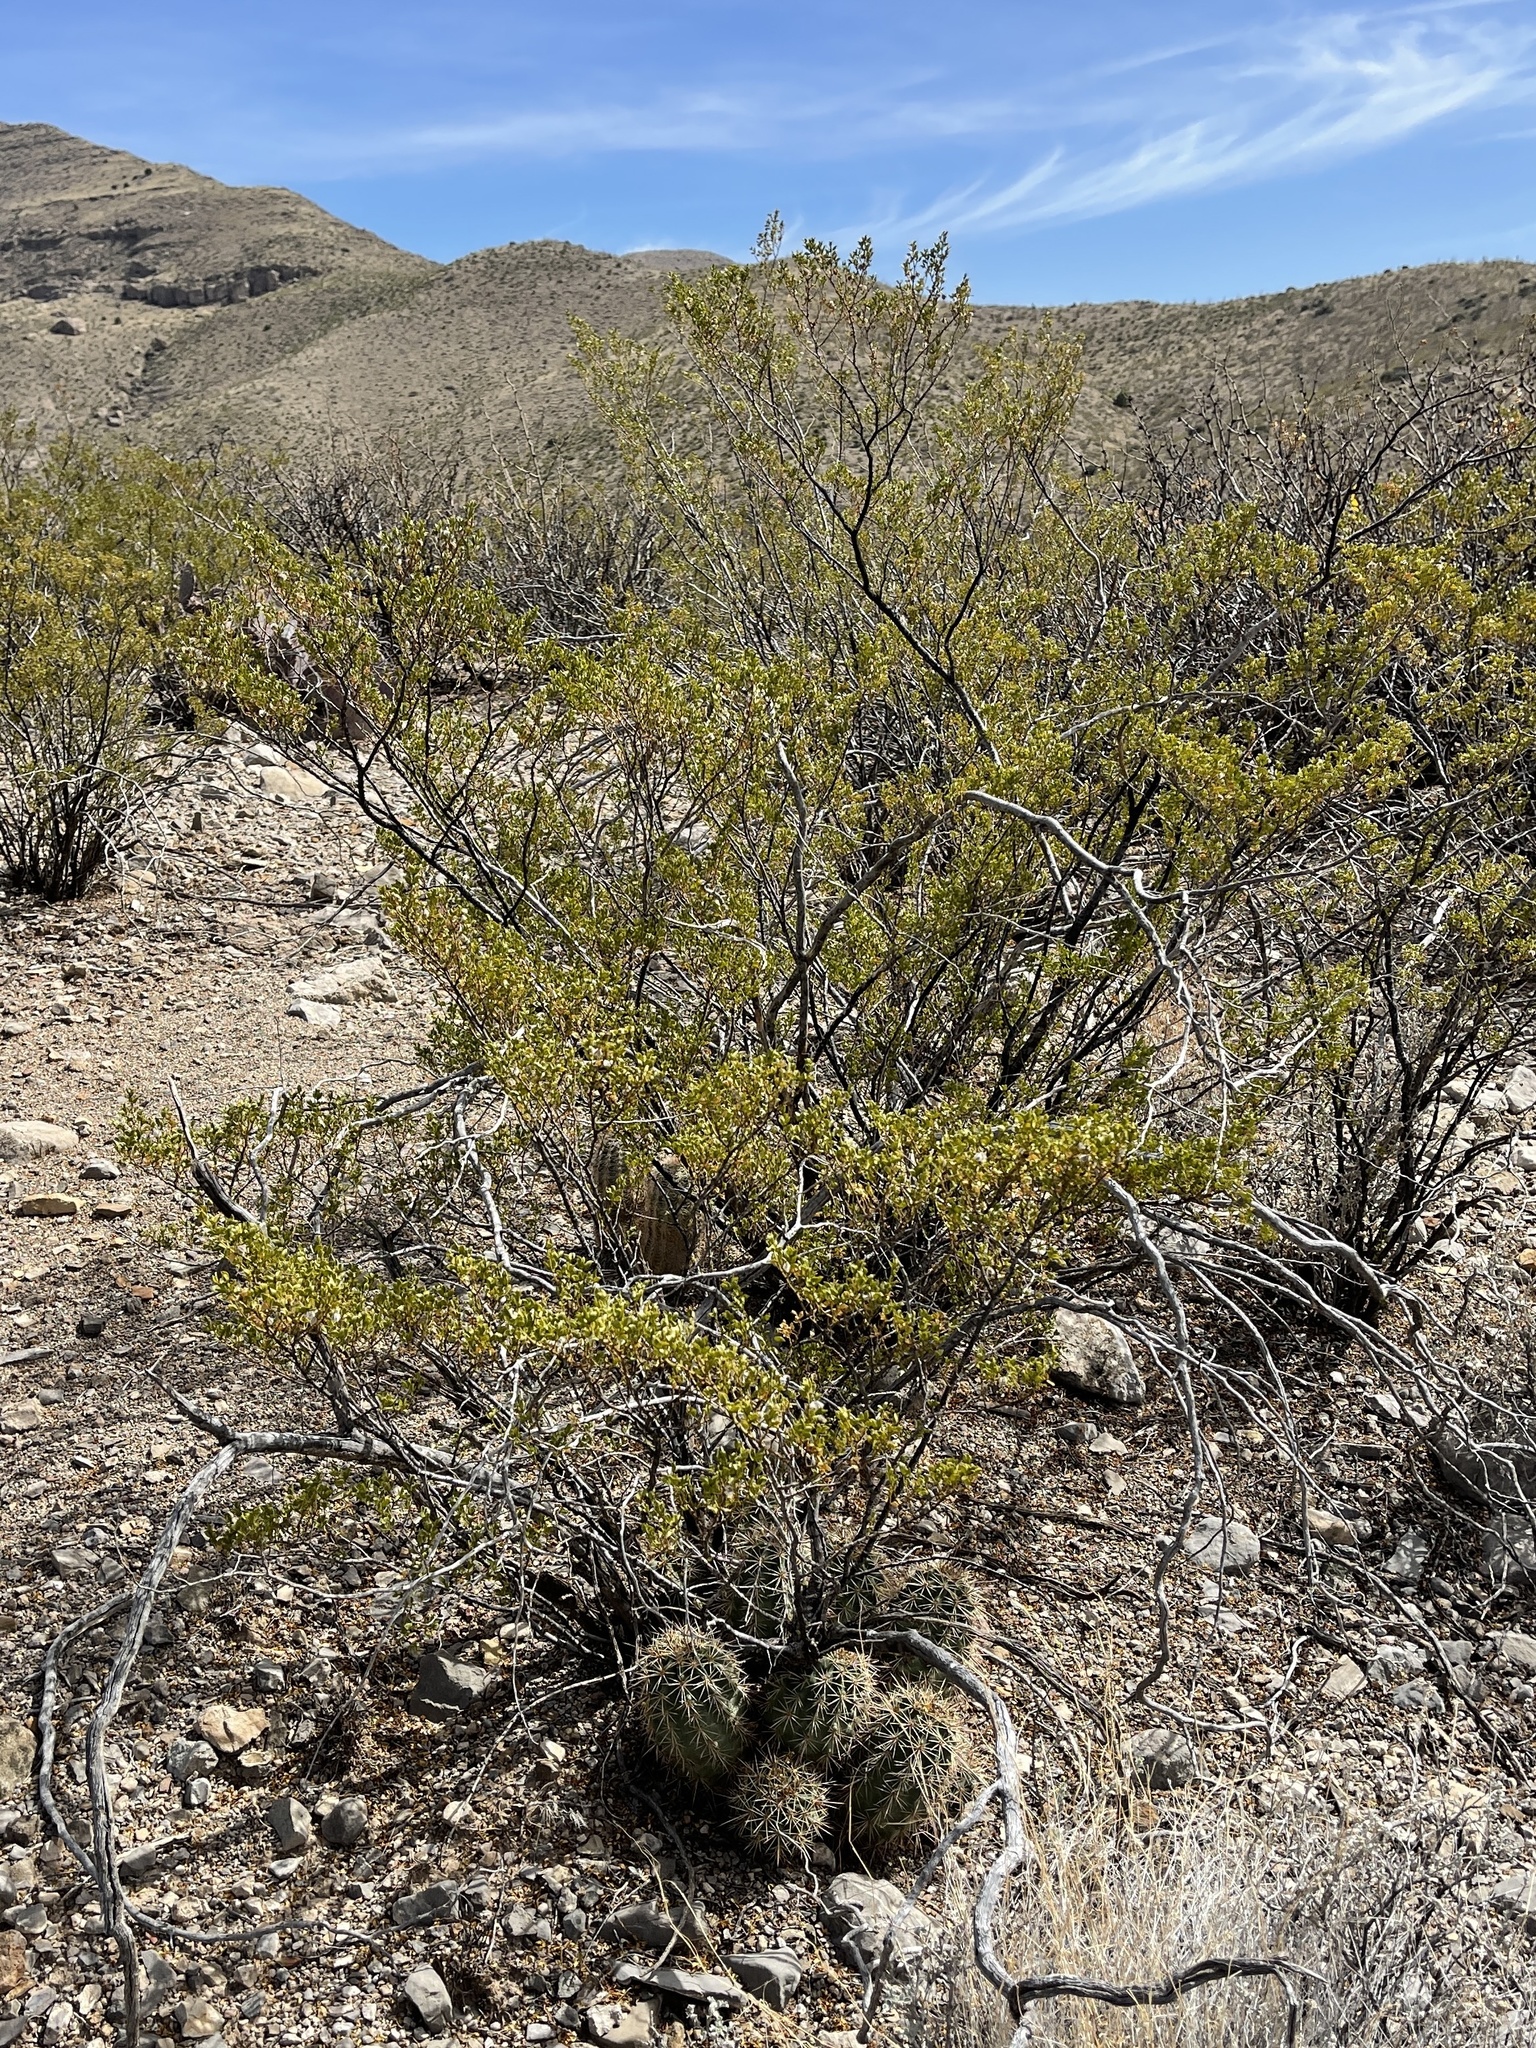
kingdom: Plantae
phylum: Tracheophyta
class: Magnoliopsida
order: Zygophyllales
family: Zygophyllaceae
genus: Larrea
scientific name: Larrea tridentata
